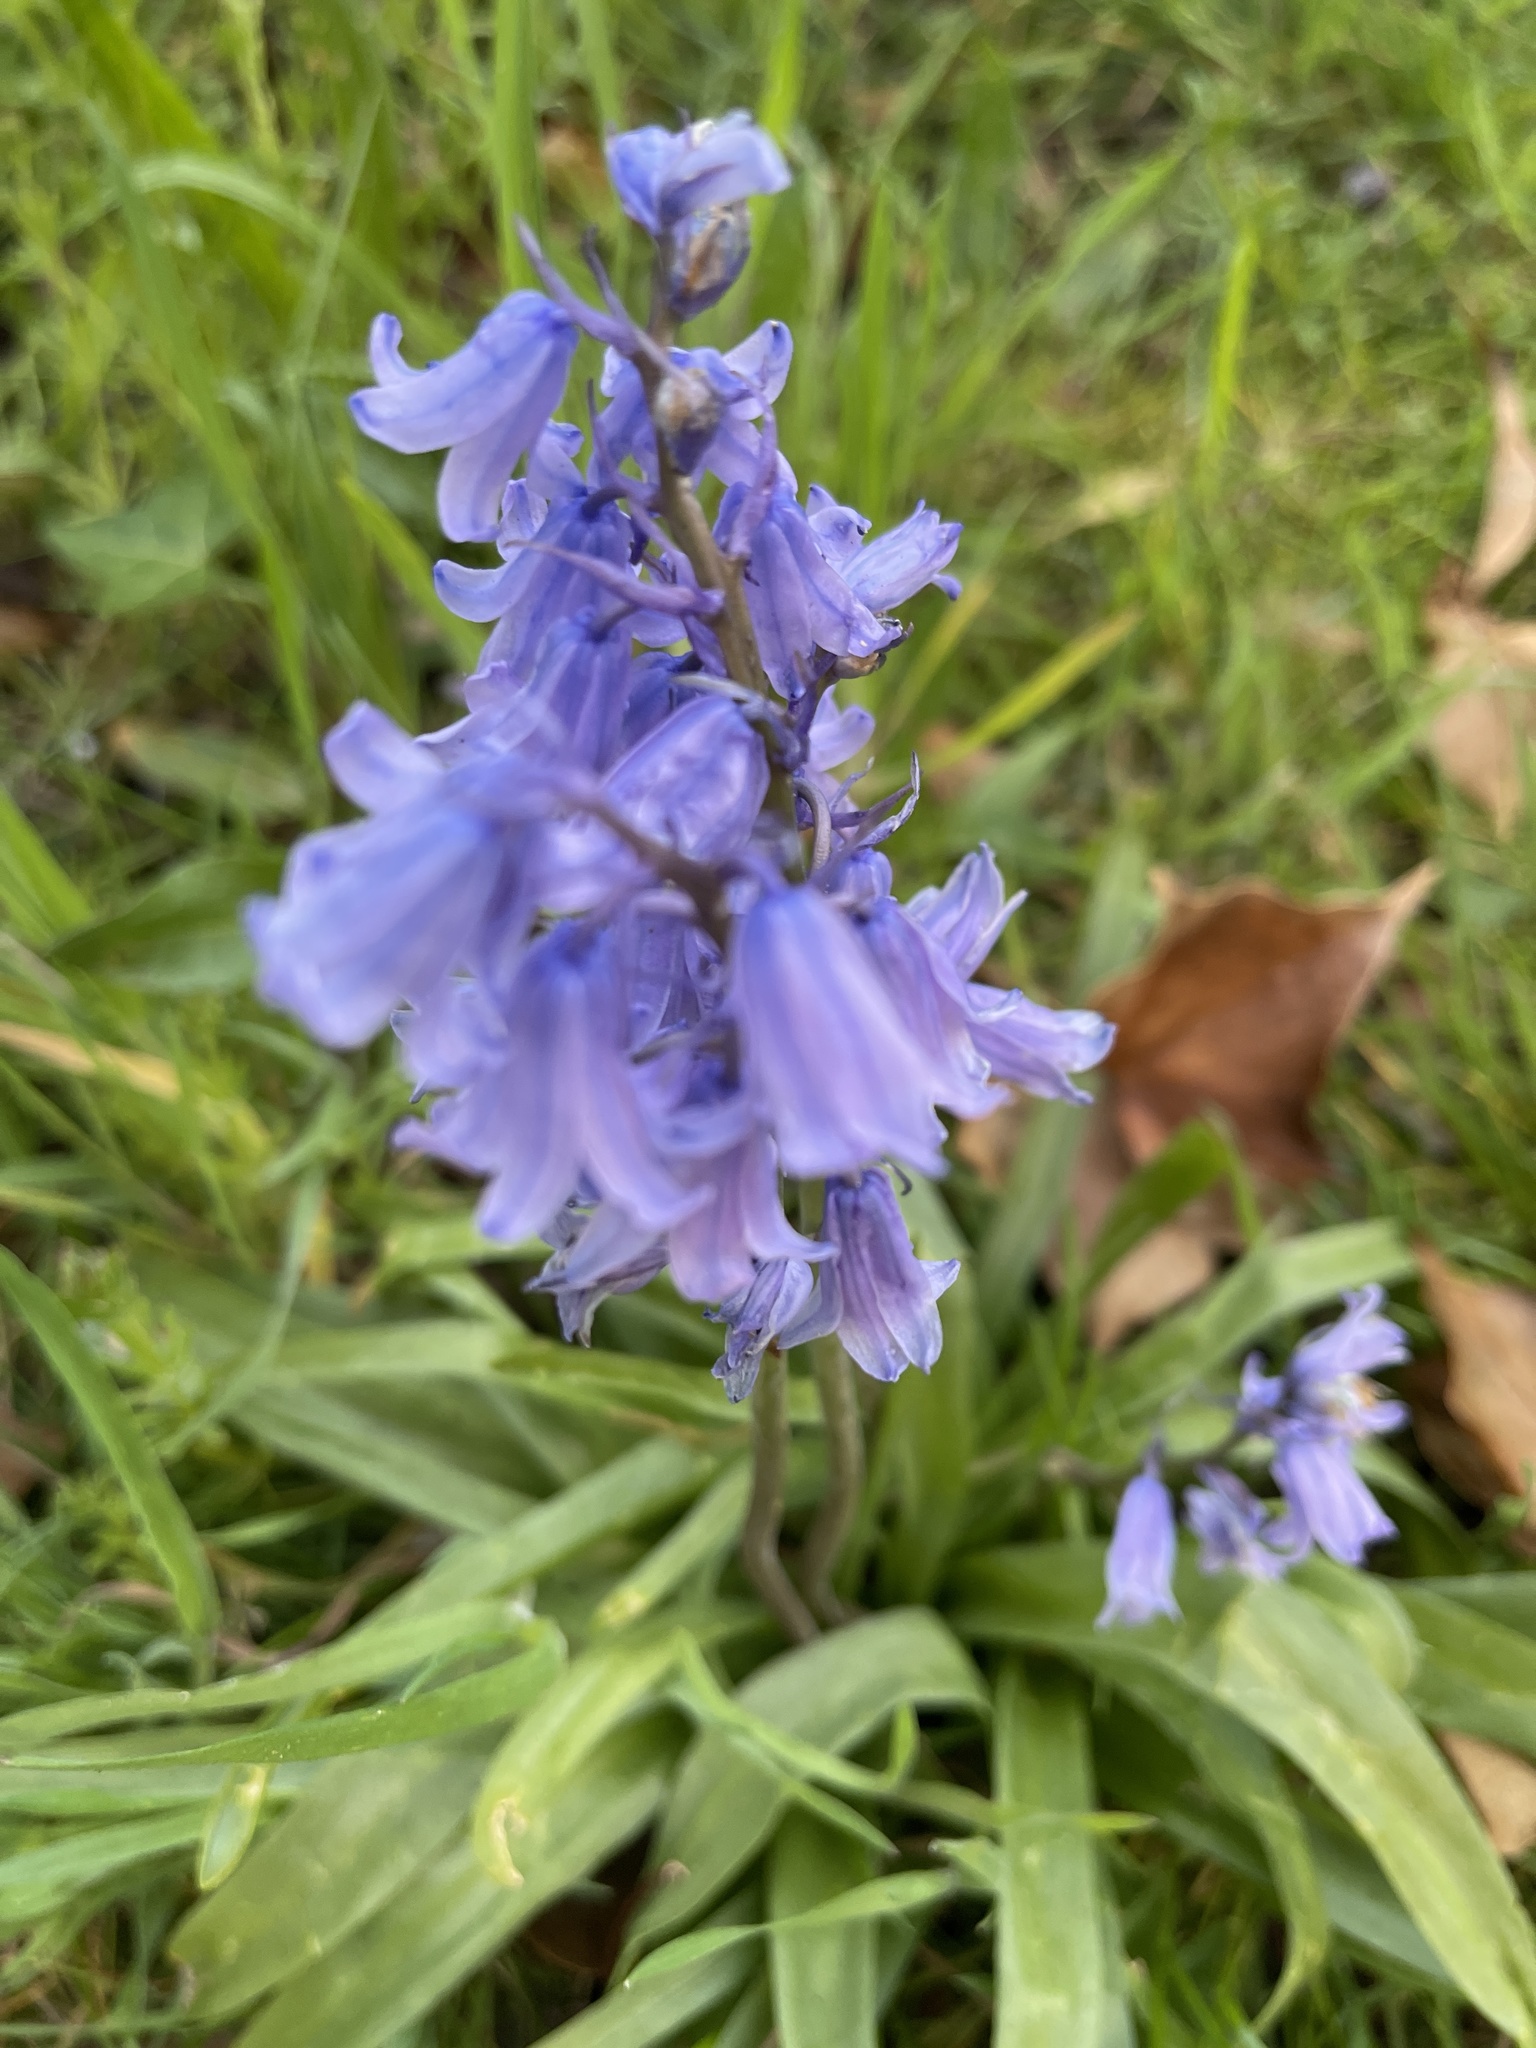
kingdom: Plantae
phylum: Tracheophyta
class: Liliopsida
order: Asparagales
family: Asparagaceae
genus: Hyacinthoides
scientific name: Hyacinthoides massartiana
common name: Hyacinthoides
